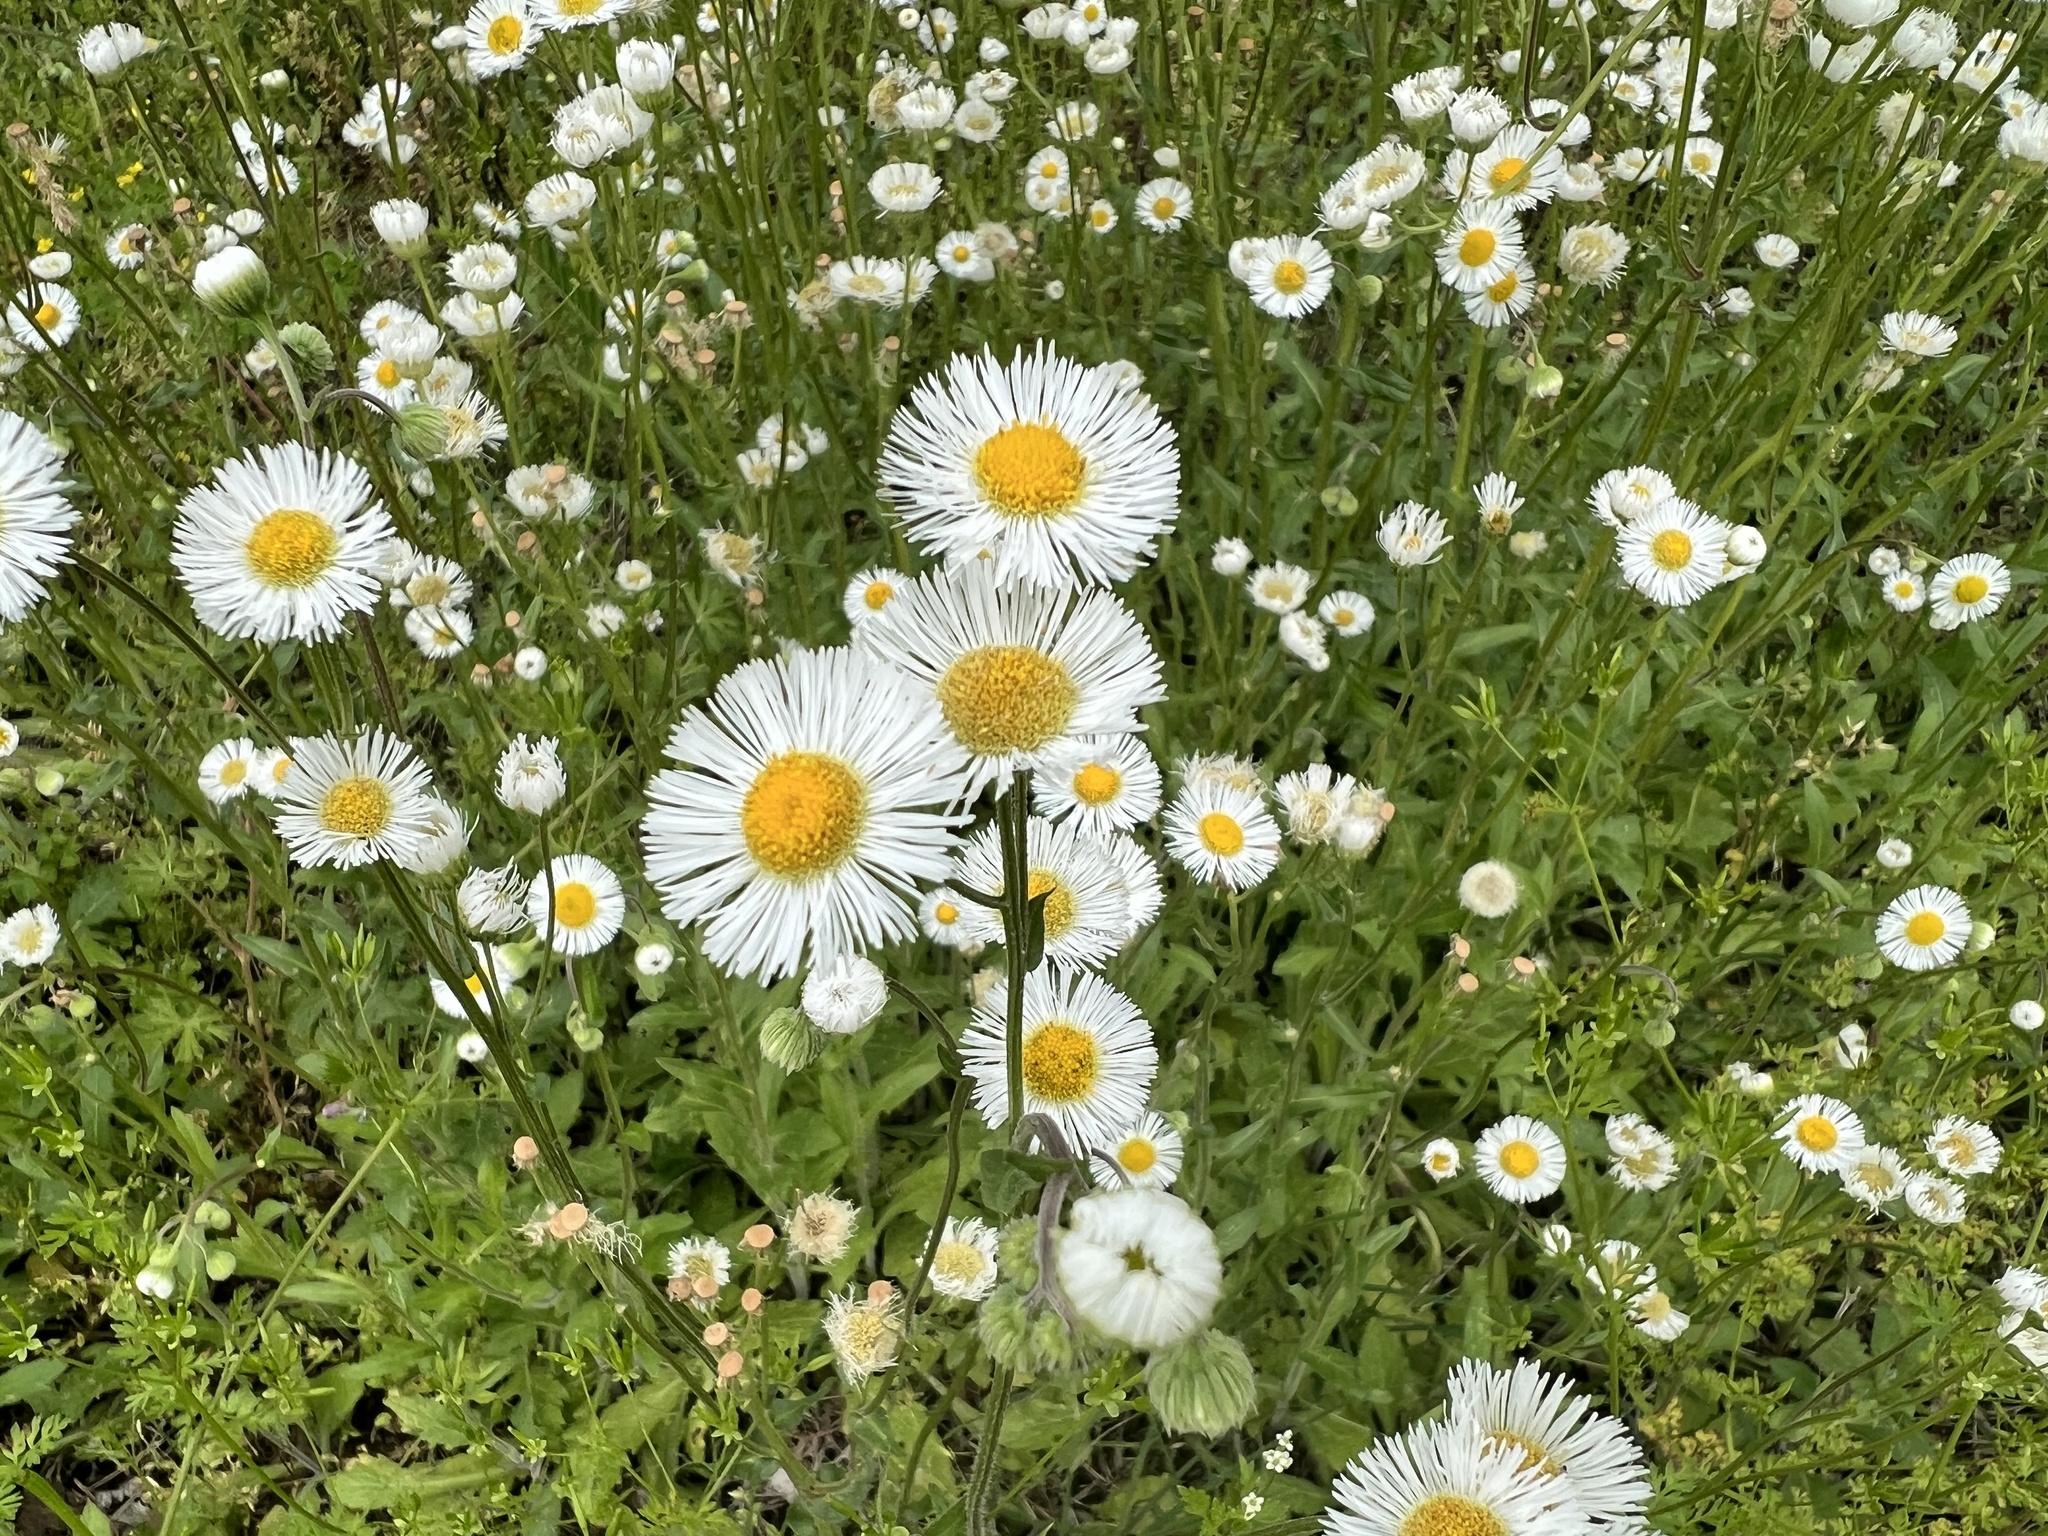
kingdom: Plantae
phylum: Tracheophyta
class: Magnoliopsida
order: Asterales
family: Asteraceae
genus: Erigeron
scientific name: Erigeron philadelphicus
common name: Robin's-plantain
